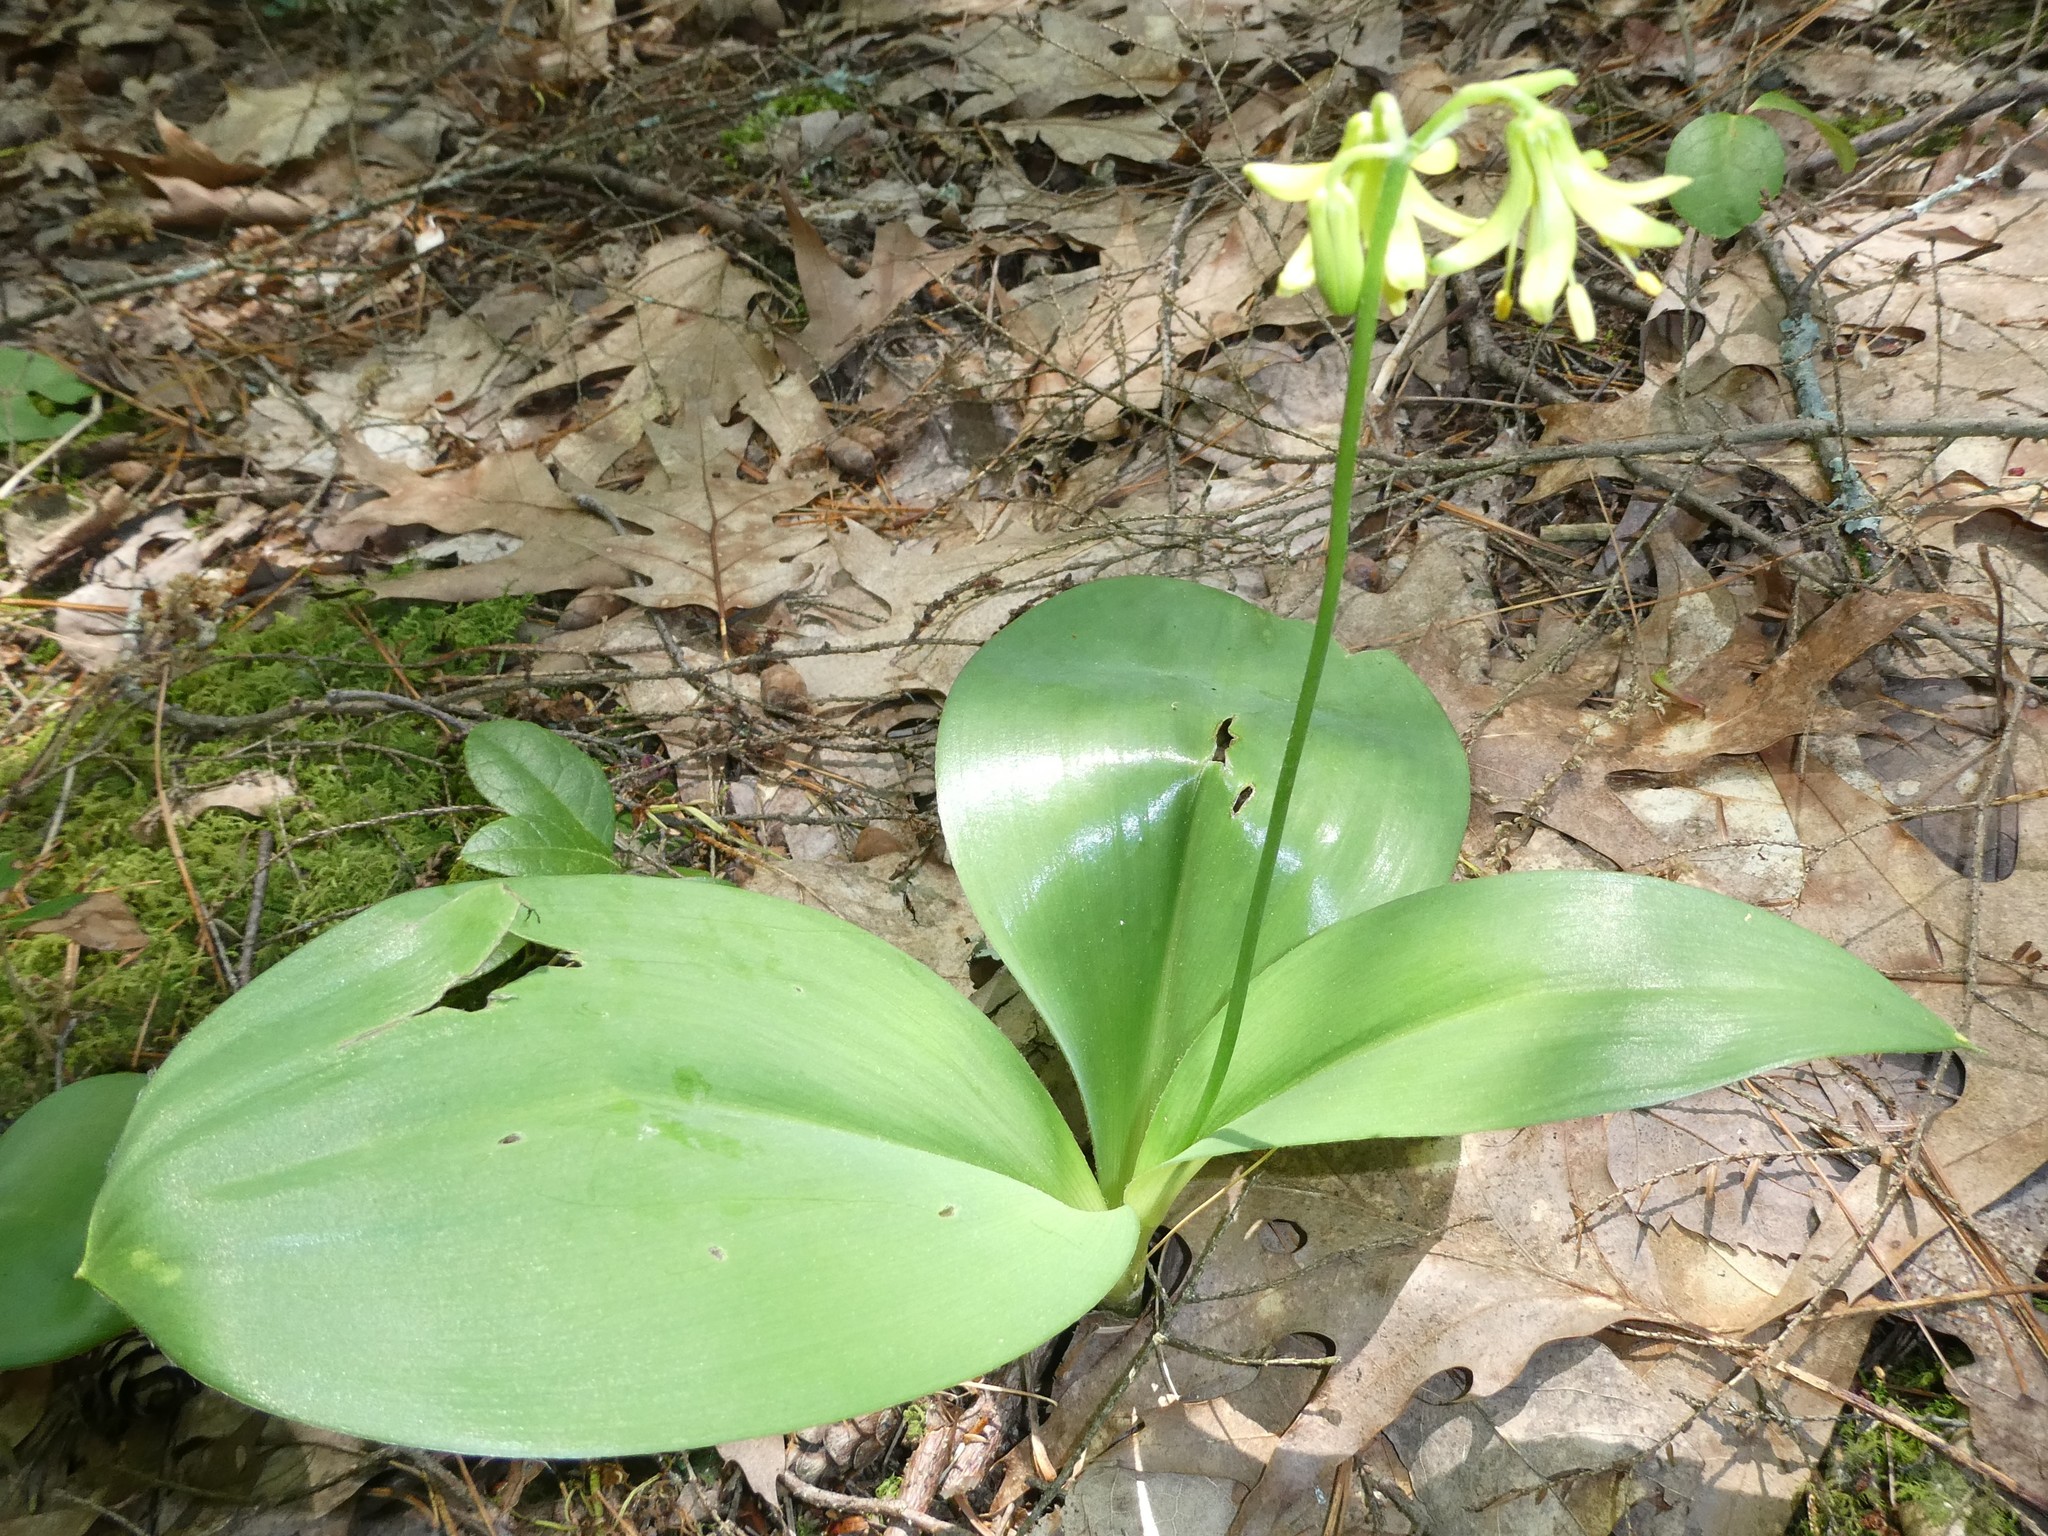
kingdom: Plantae
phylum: Tracheophyta
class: Liliopsida
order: Liliales
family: Liliaceae
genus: Clintonia
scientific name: Clintonia borealis
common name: Yellow clintonia
